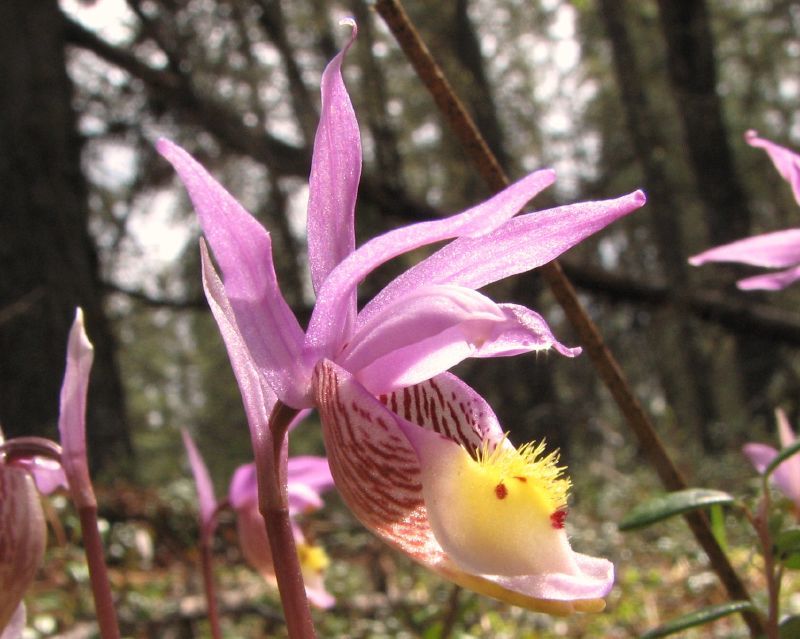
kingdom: Plantae
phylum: Tracheophyta
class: Liliopsida
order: Asparagales
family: Orchidaceae
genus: Calypso
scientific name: Calypso bulbosa
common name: Calypso
